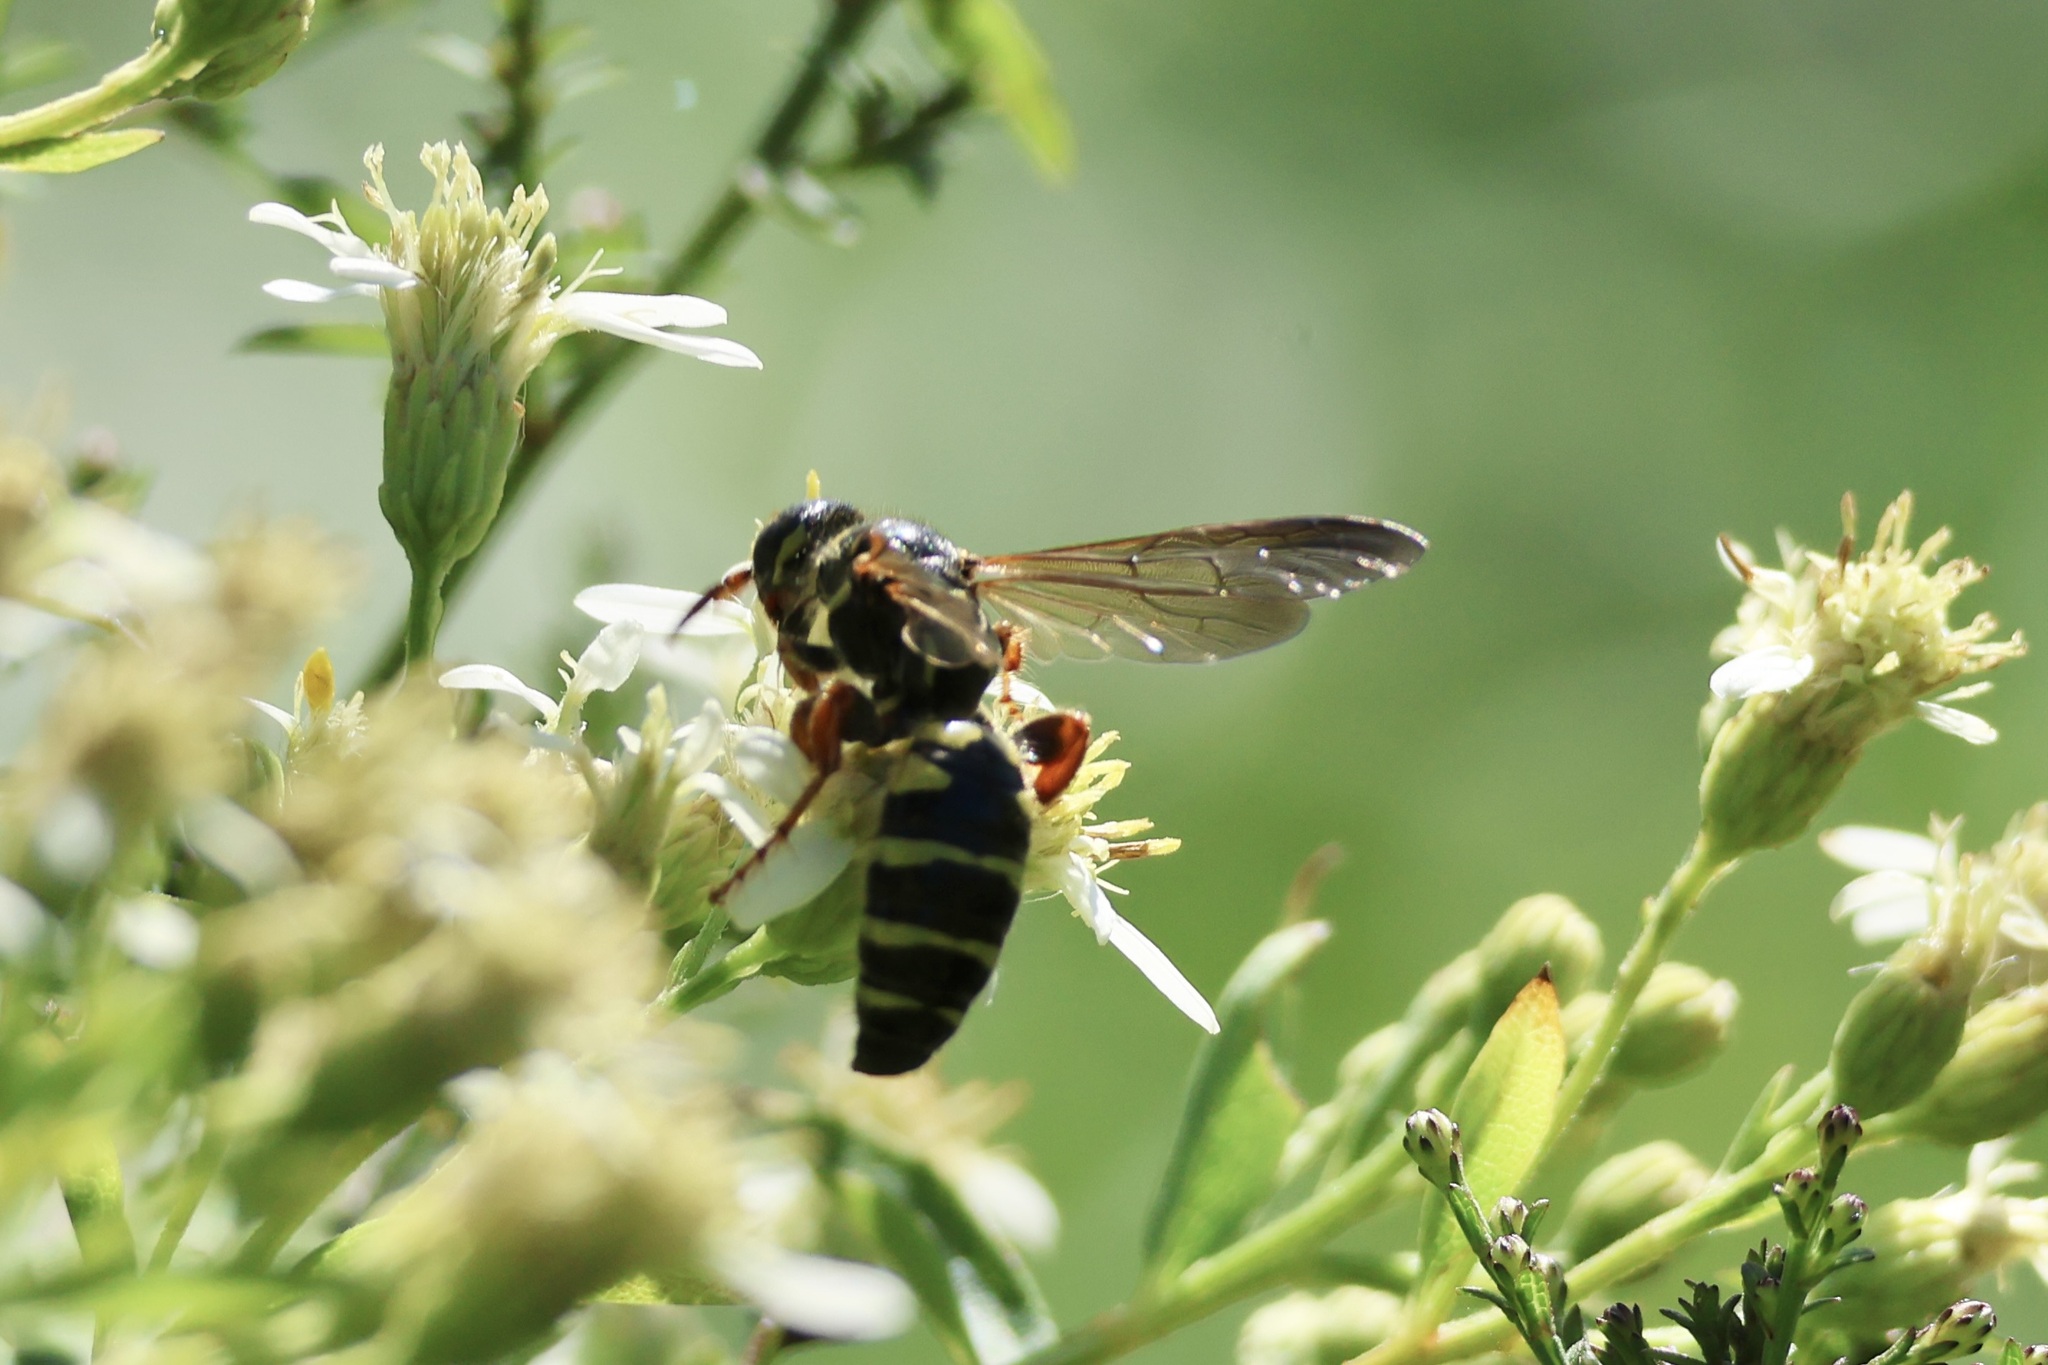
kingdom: Animalia
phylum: Arthropoda
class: Insecta
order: Hymenoptera
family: Tiphiidae
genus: Myzinum
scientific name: Myzinum quinquecinctum
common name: Five-banded thynnid wasp
